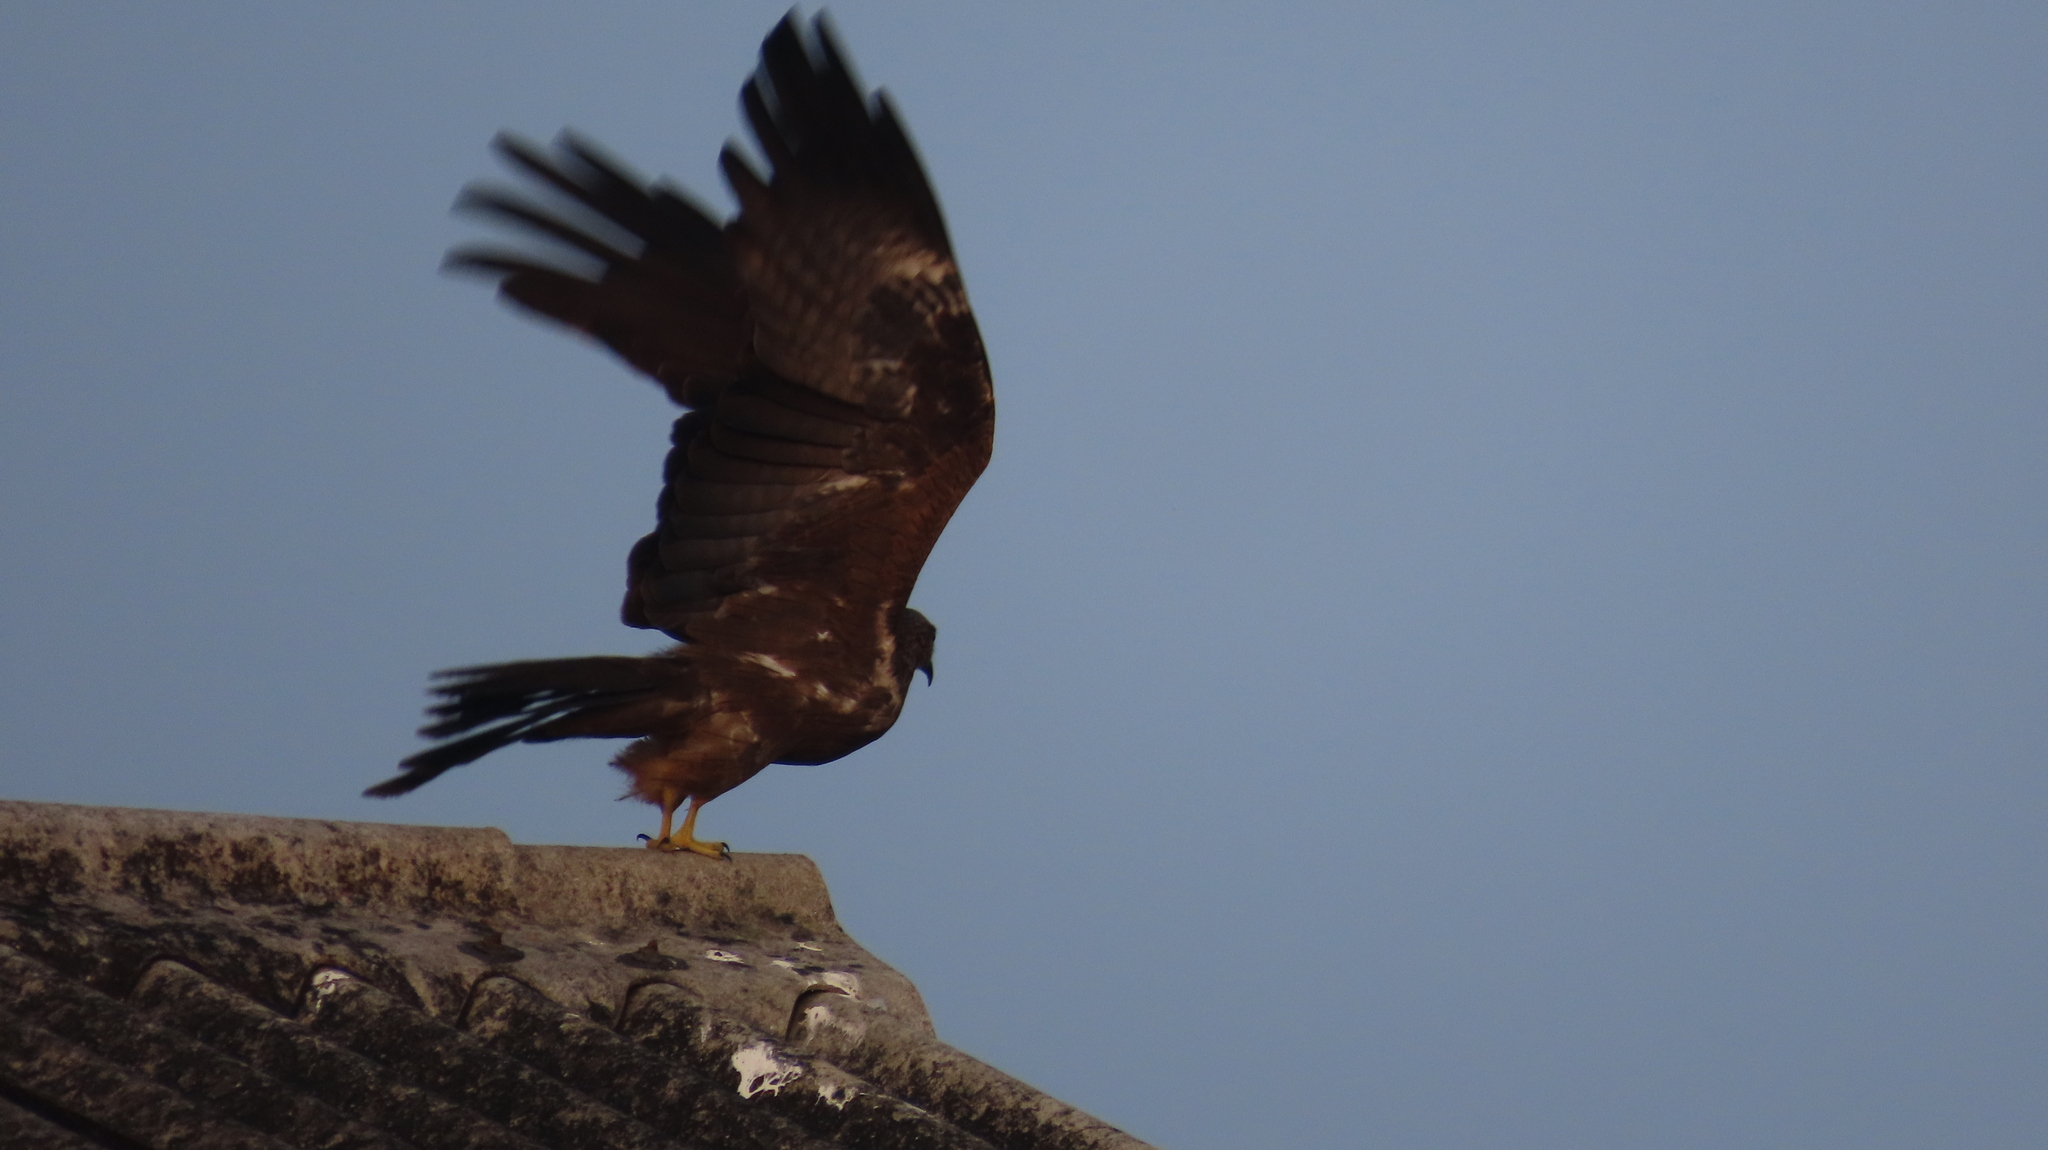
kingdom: Animalia
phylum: Chordata
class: Aves
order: Accipitriformes
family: Accipitridae
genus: Milvus
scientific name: Milvus migrans
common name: Black kite
